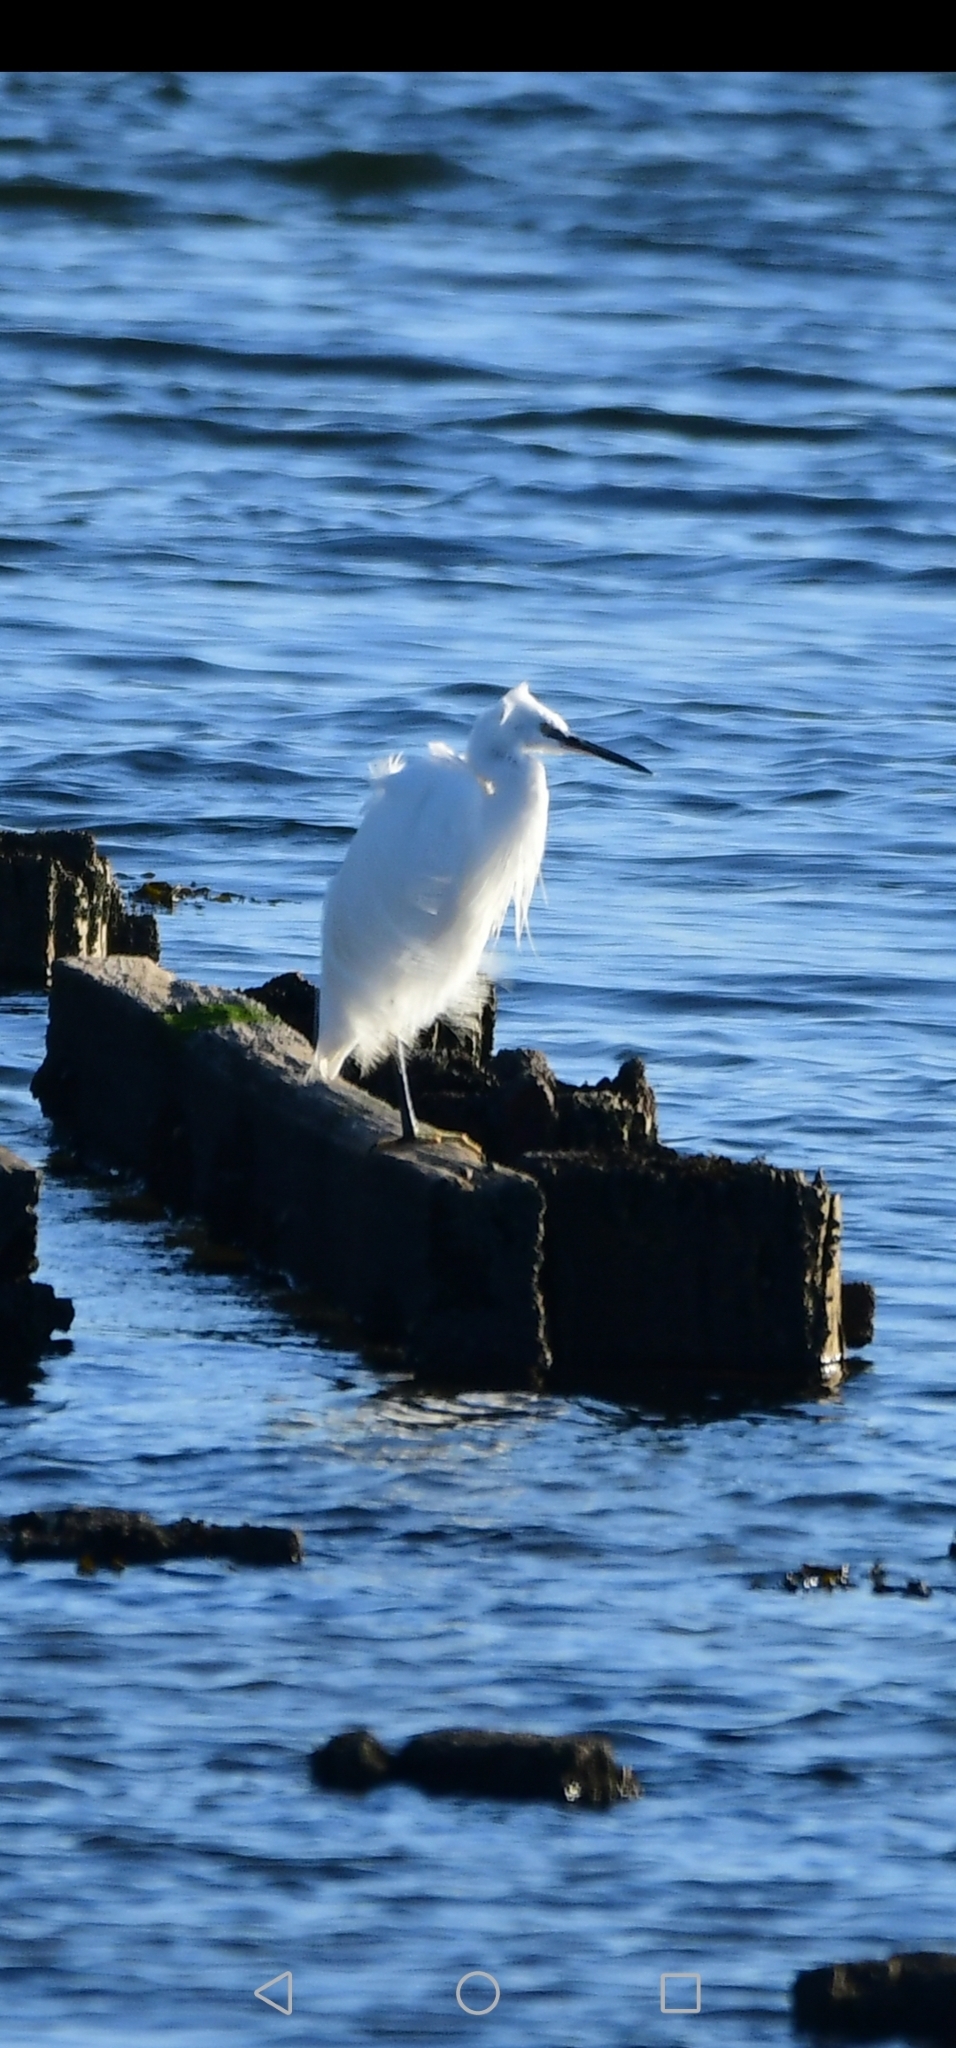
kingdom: Animalia
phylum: Chordata
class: Aves
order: Pelecaniformes
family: Ardeidae
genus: Egretta
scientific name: Egretta garzetta
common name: Little egret
